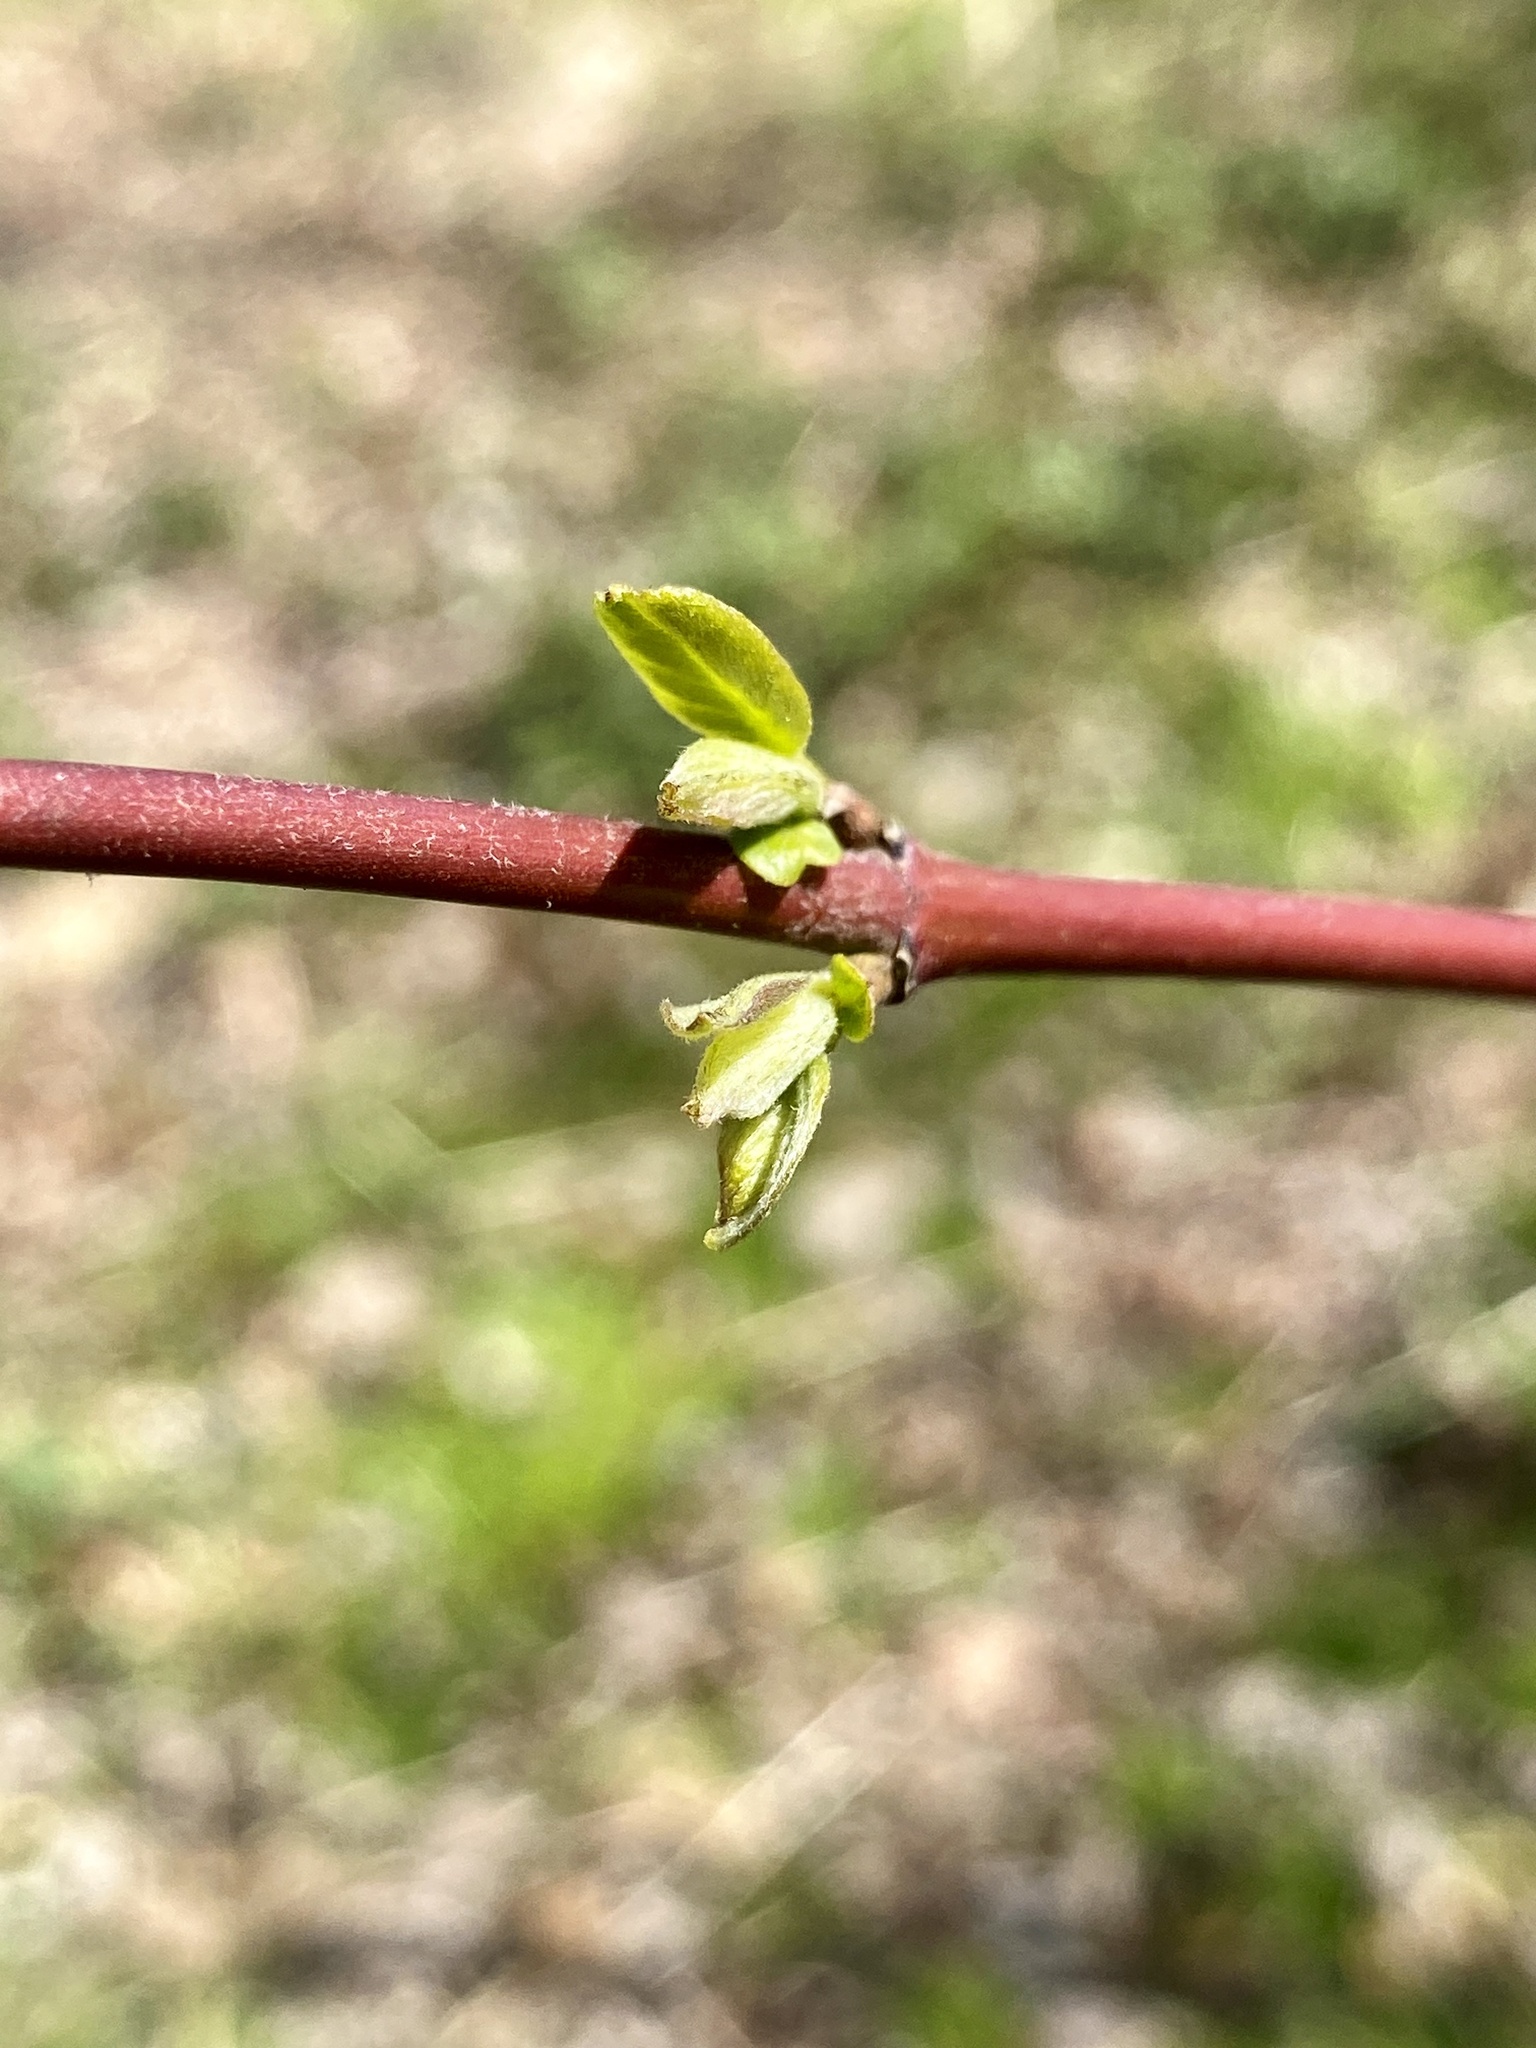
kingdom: Plantae
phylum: Tracheophyta
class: Magnoliopsida
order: Cornales
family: Cornaceae
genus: Cornus
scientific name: Cornus amomum
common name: Silky dogwood
